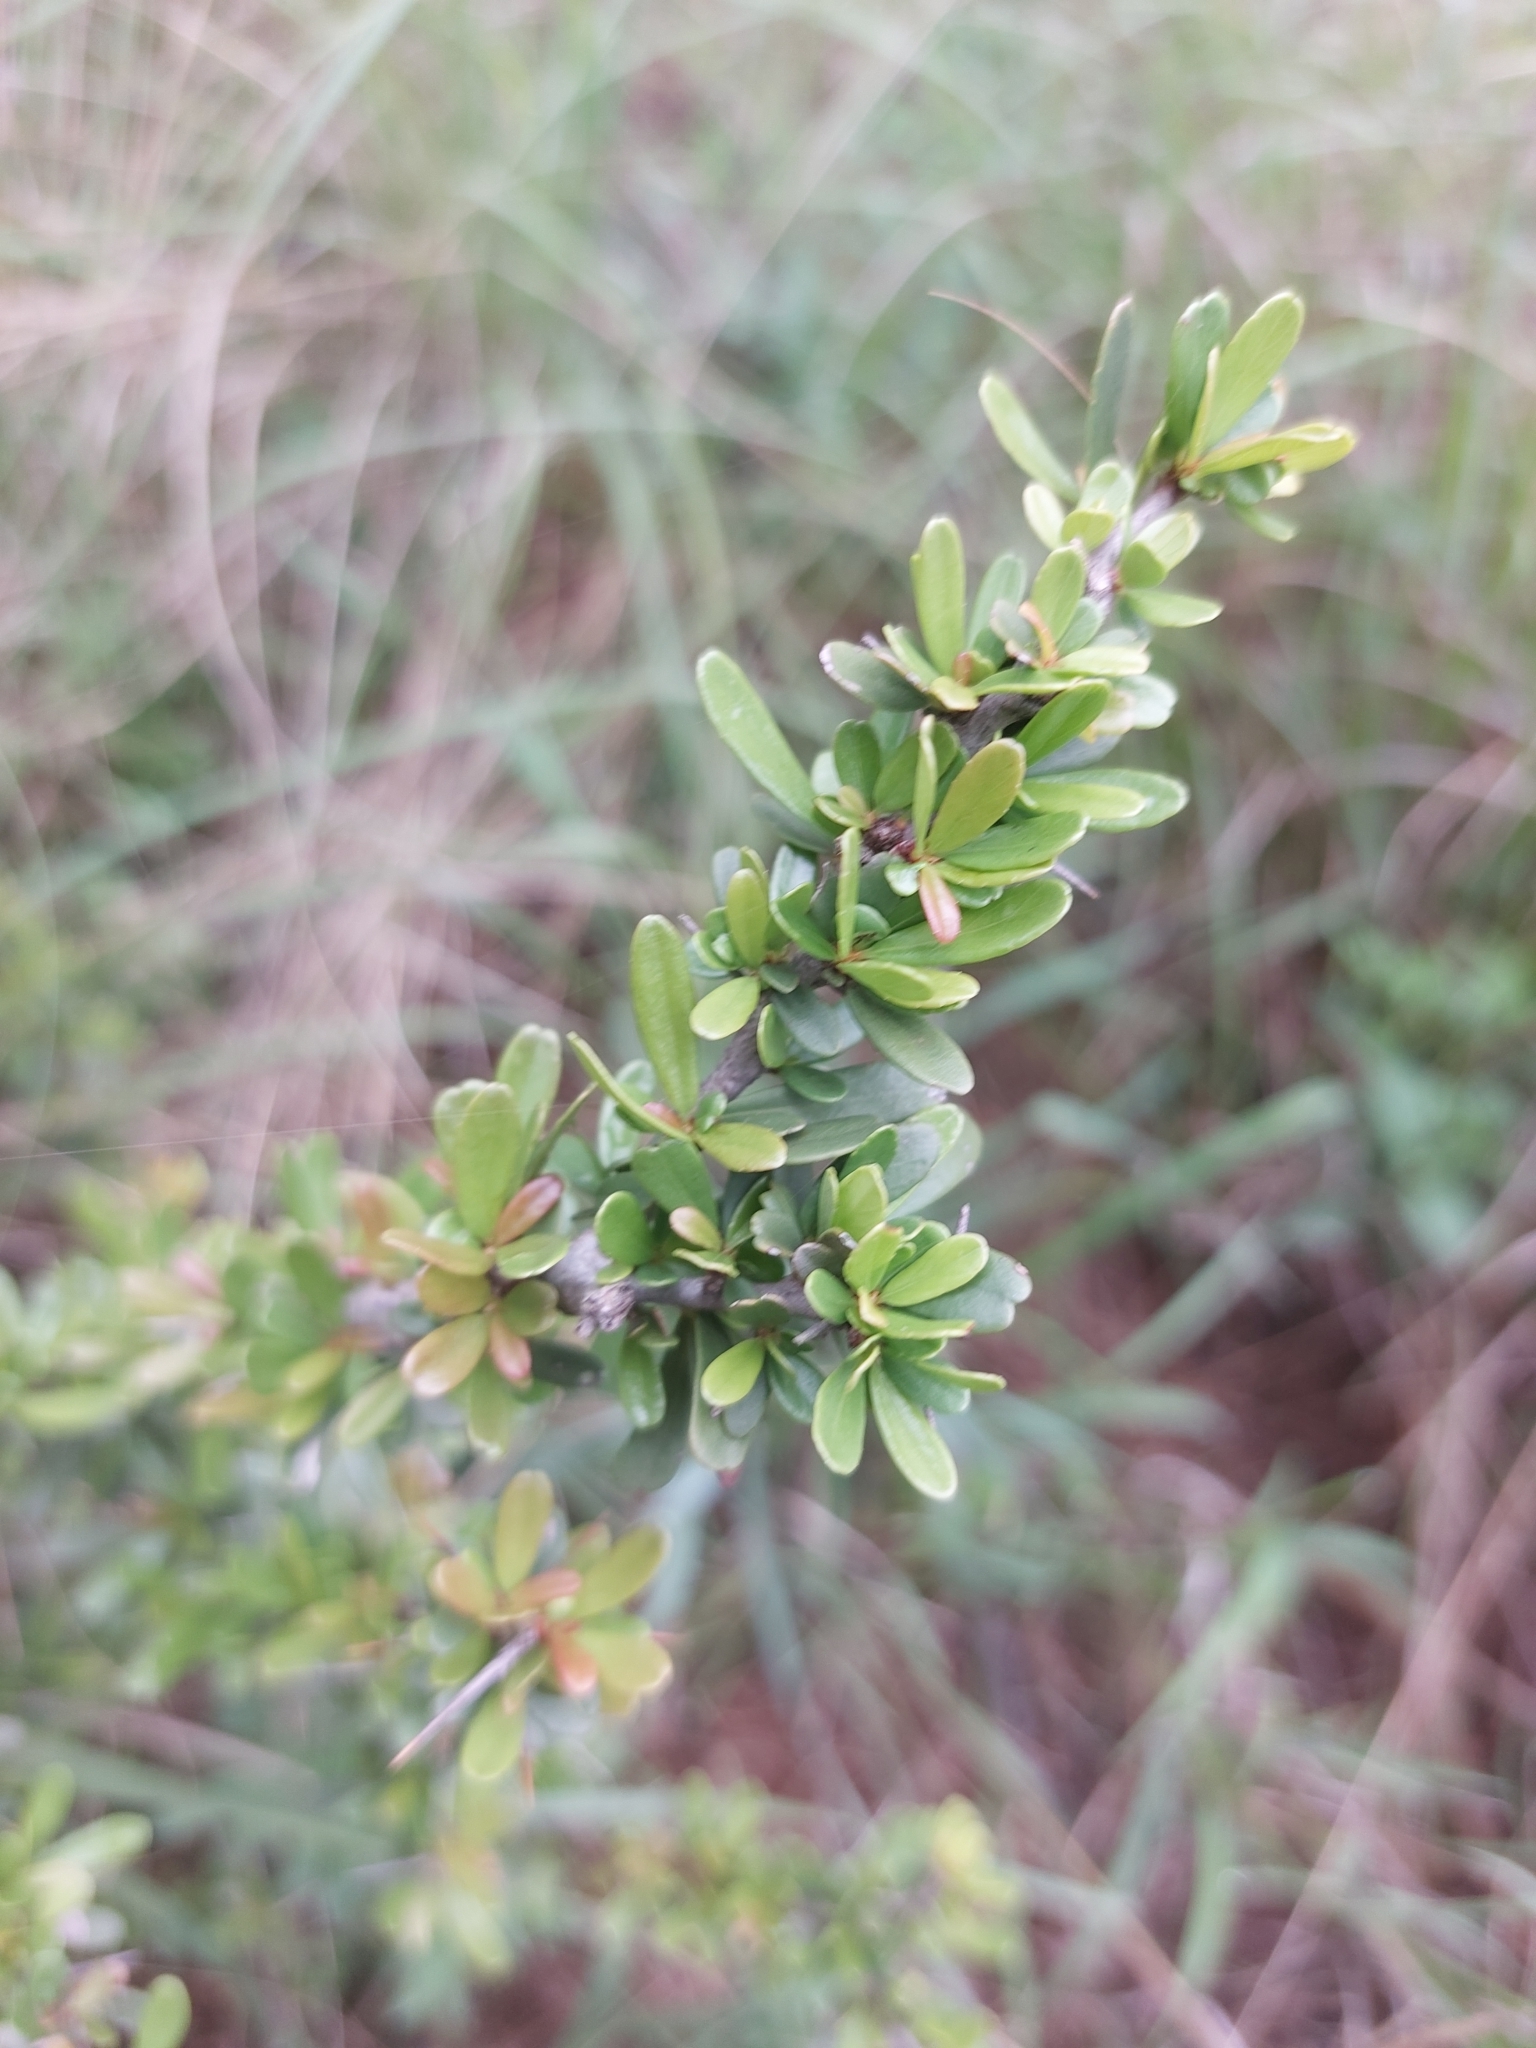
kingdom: Plantae
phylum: Tracheophyta
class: Magnoliopsida
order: Celastrales
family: Celastraceae
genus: Gymnosporia
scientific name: Gymnosporia polyacantha
